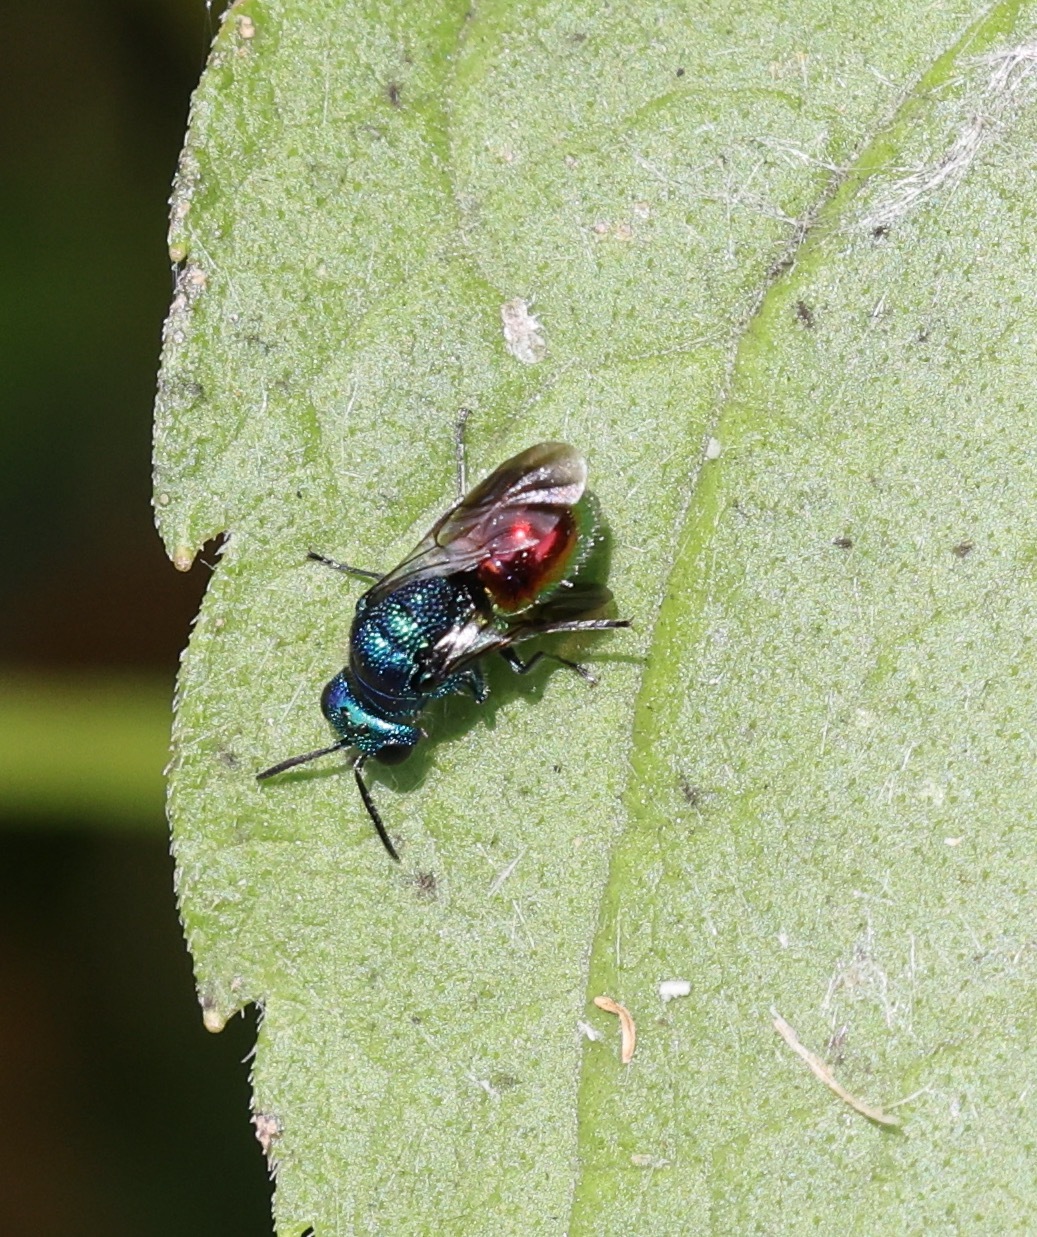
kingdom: Animalia
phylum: Arthropoda
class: Insecta
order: Hymenoptera
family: Chrysididae
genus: Pseudomalus
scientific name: Pseudomalus auratus
